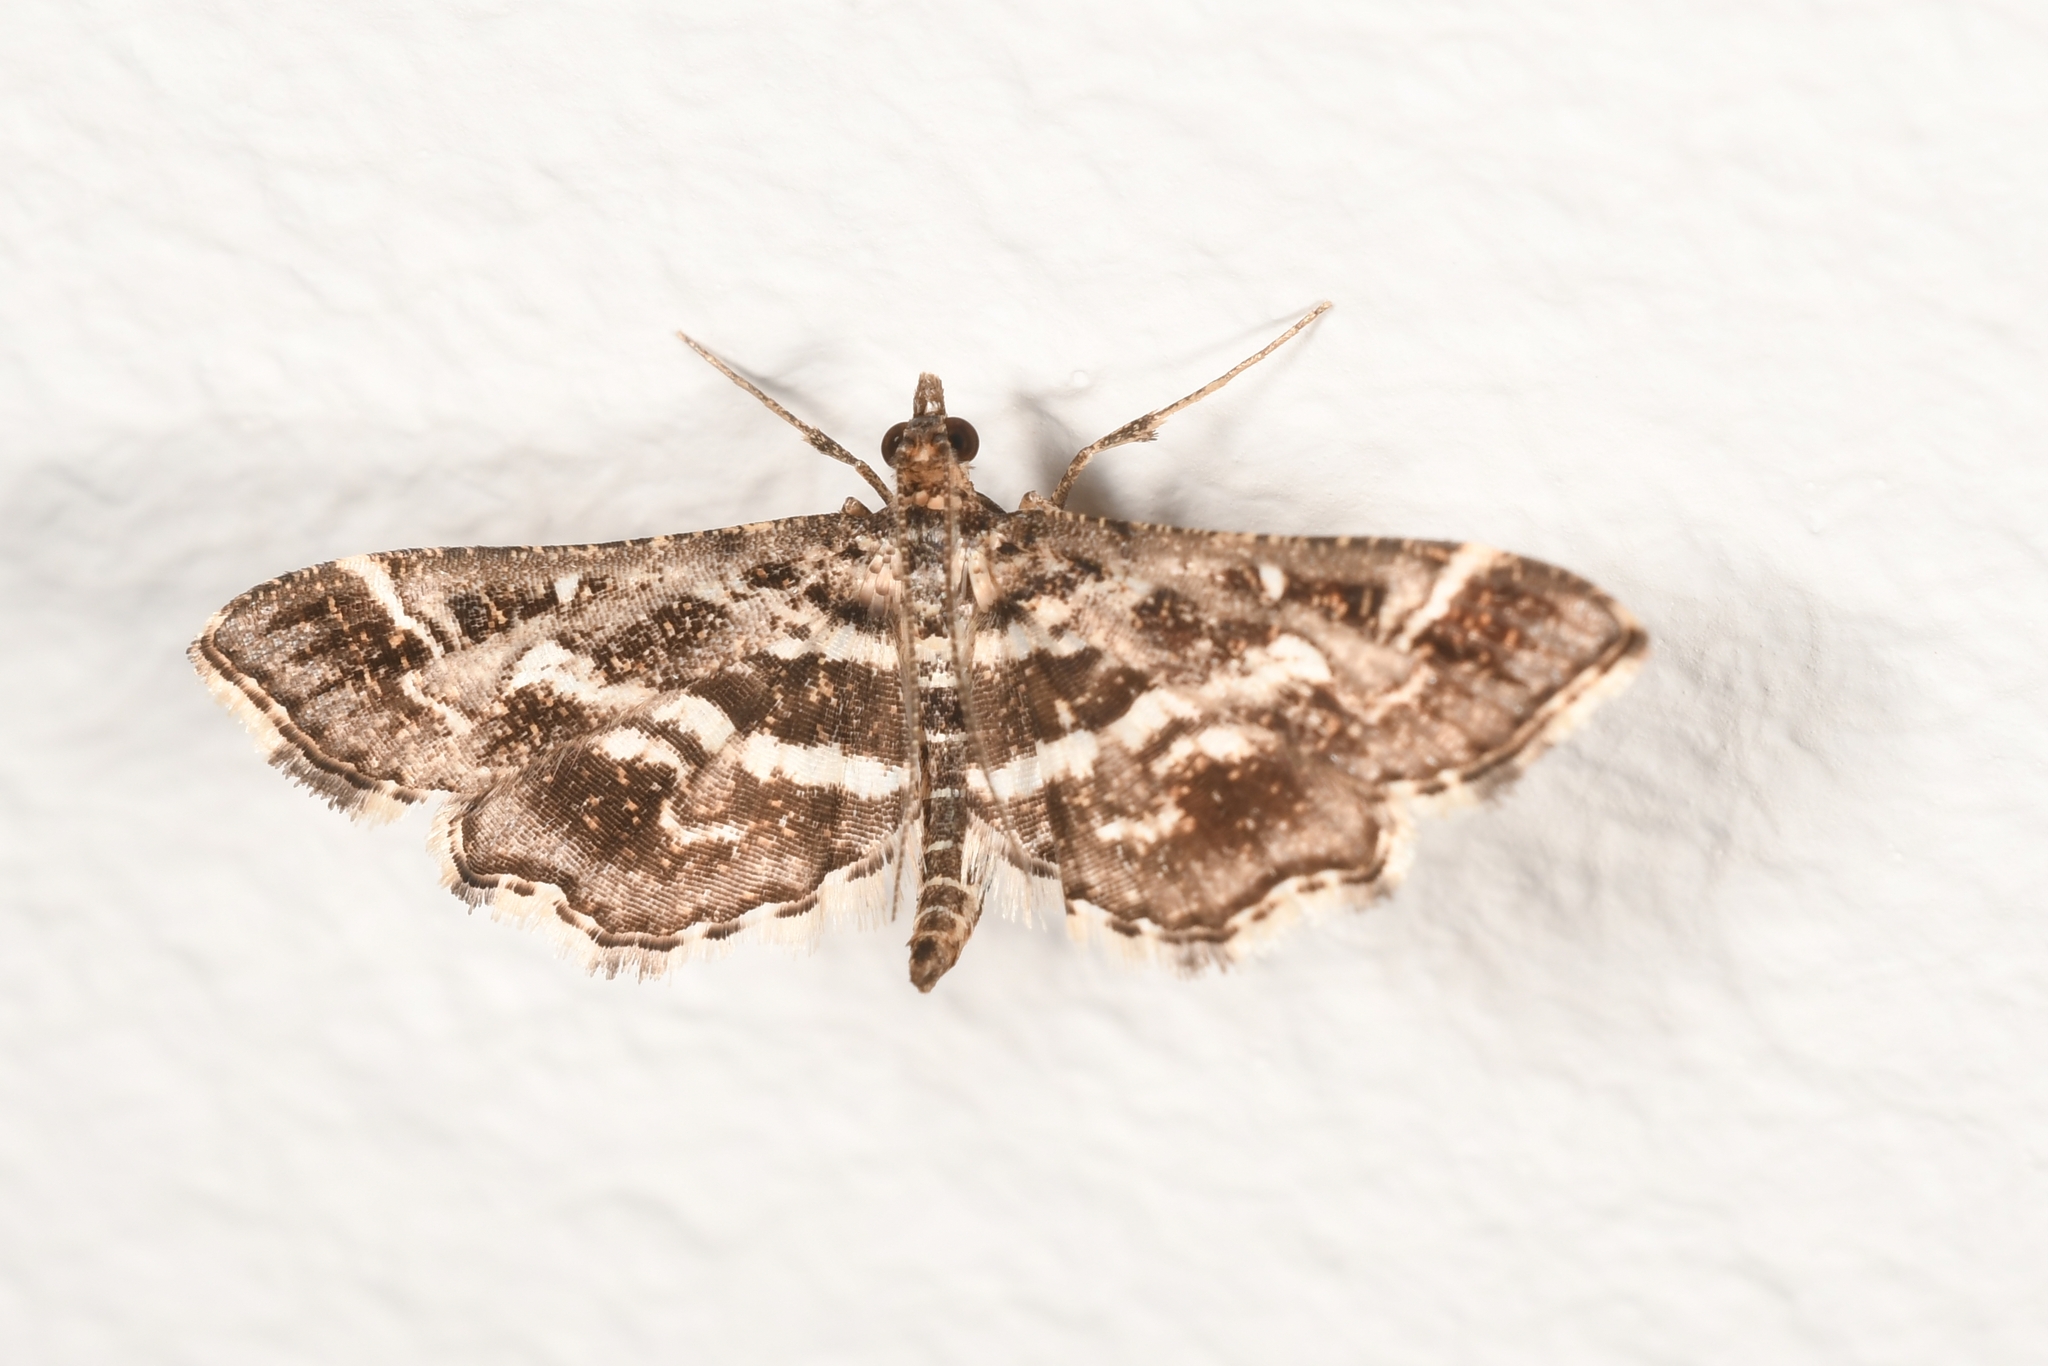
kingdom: Animalia
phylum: Arthropoda
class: Insecta
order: Lepidoptera
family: Crambidae
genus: Diasemiopsis
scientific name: Diasemiopsis ramburialis
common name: Vagrant china-mark
